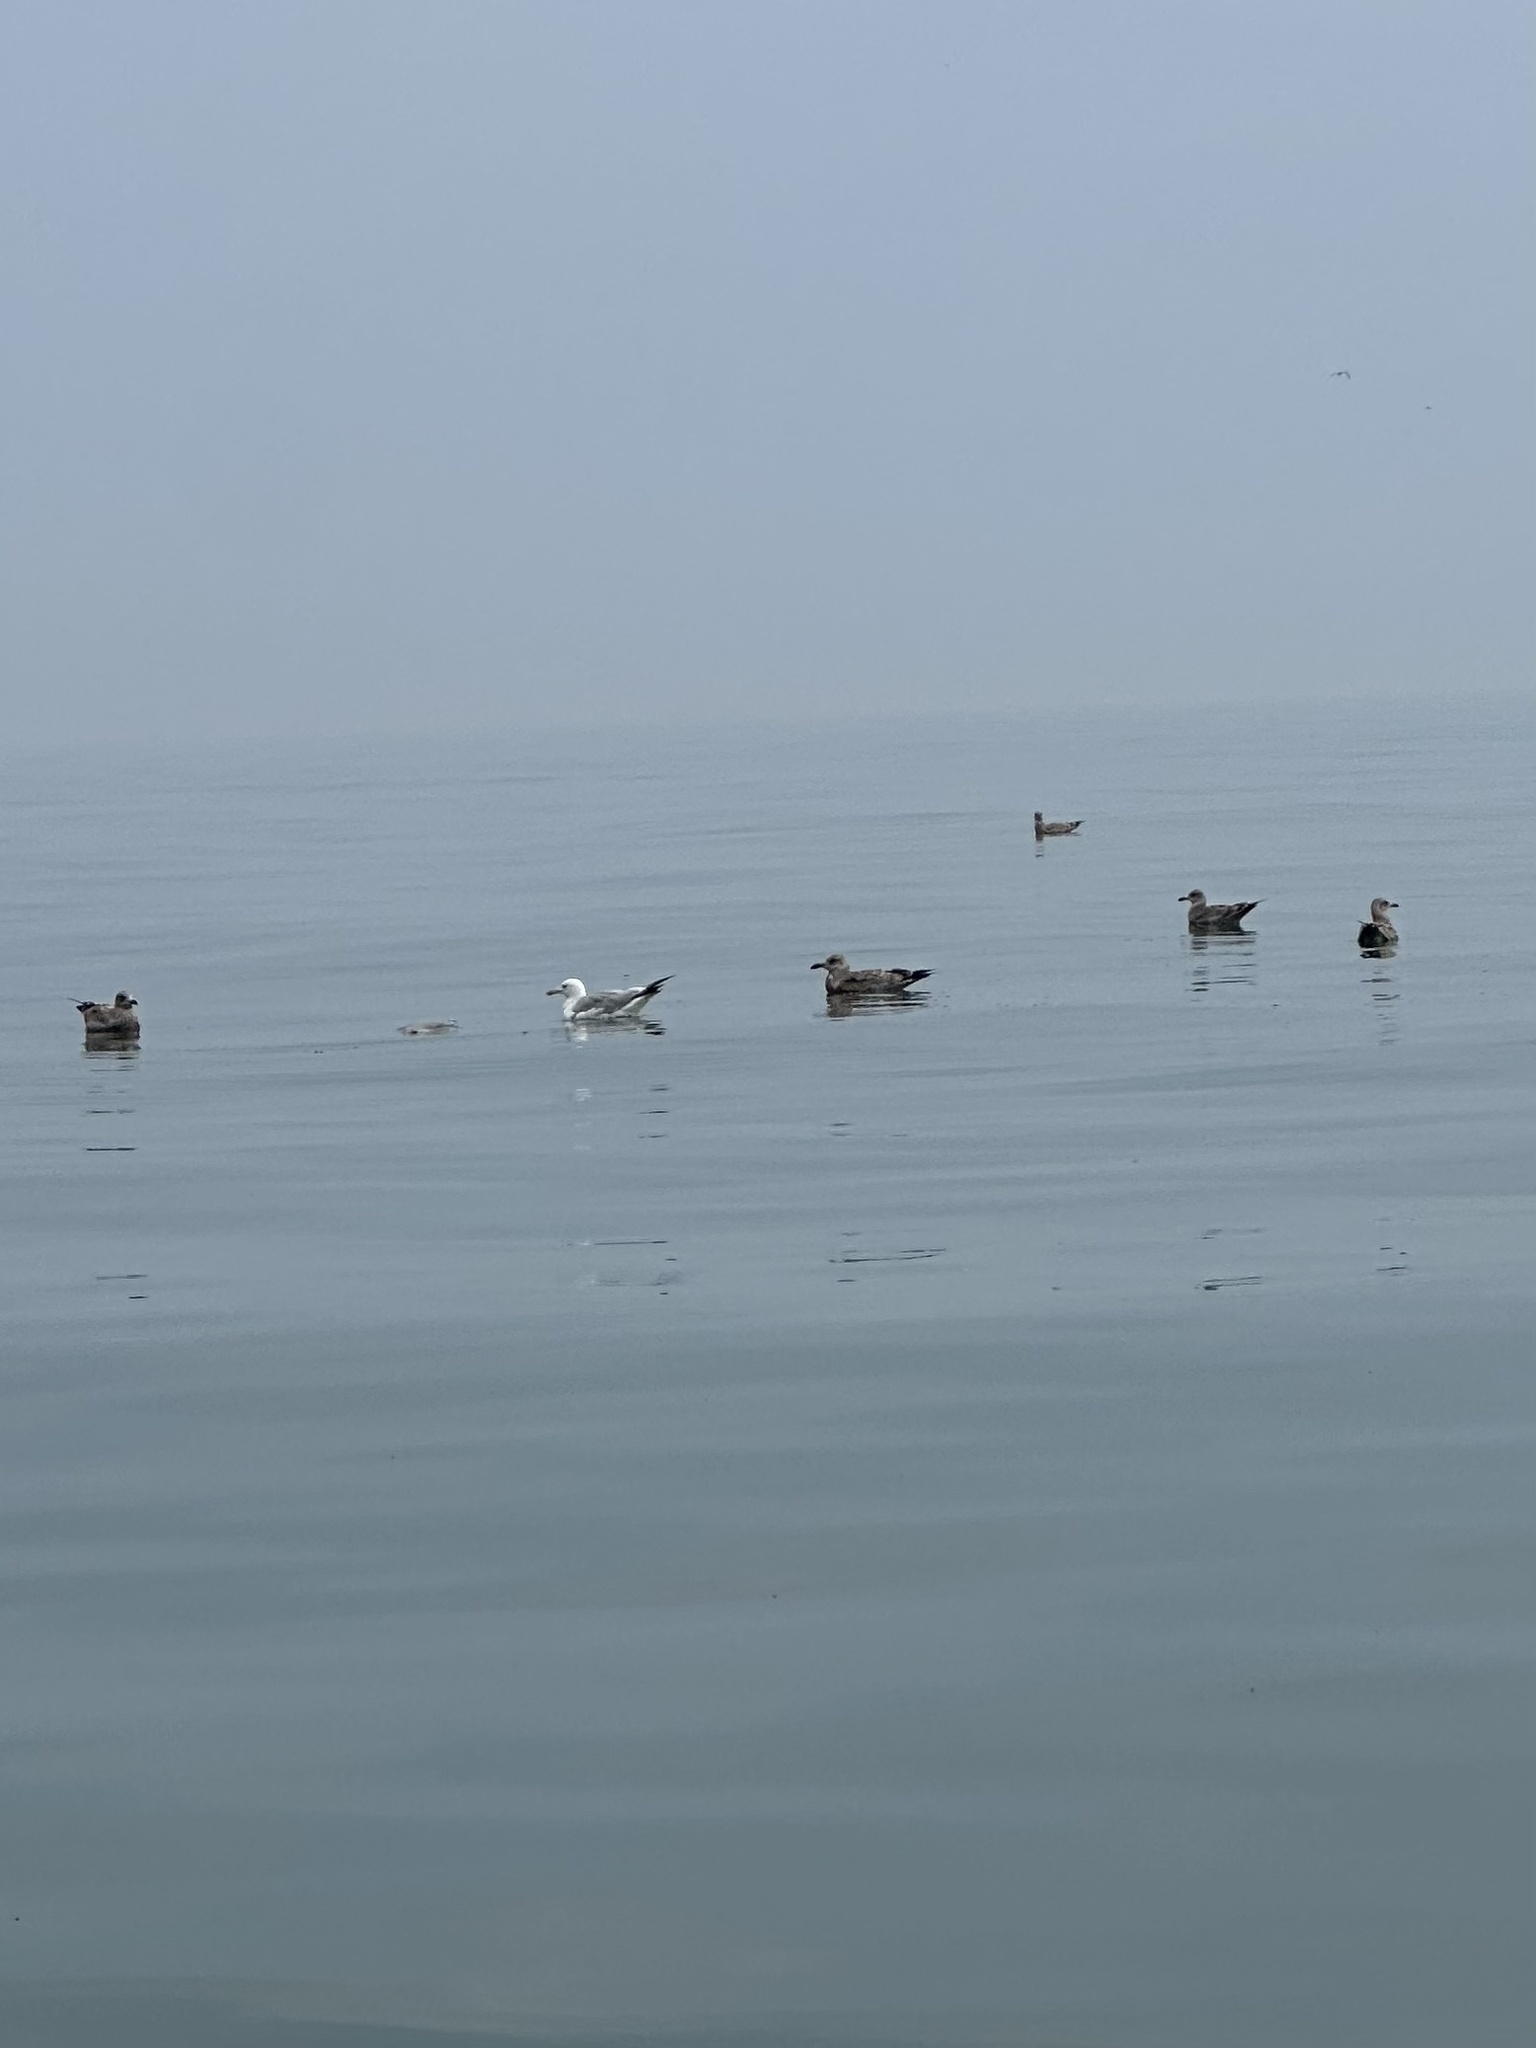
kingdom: Animalia
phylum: Chordata
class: Aves
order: Charadriiformes
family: Laridae
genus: Larus
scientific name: Larus argentatus
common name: Herring gull
